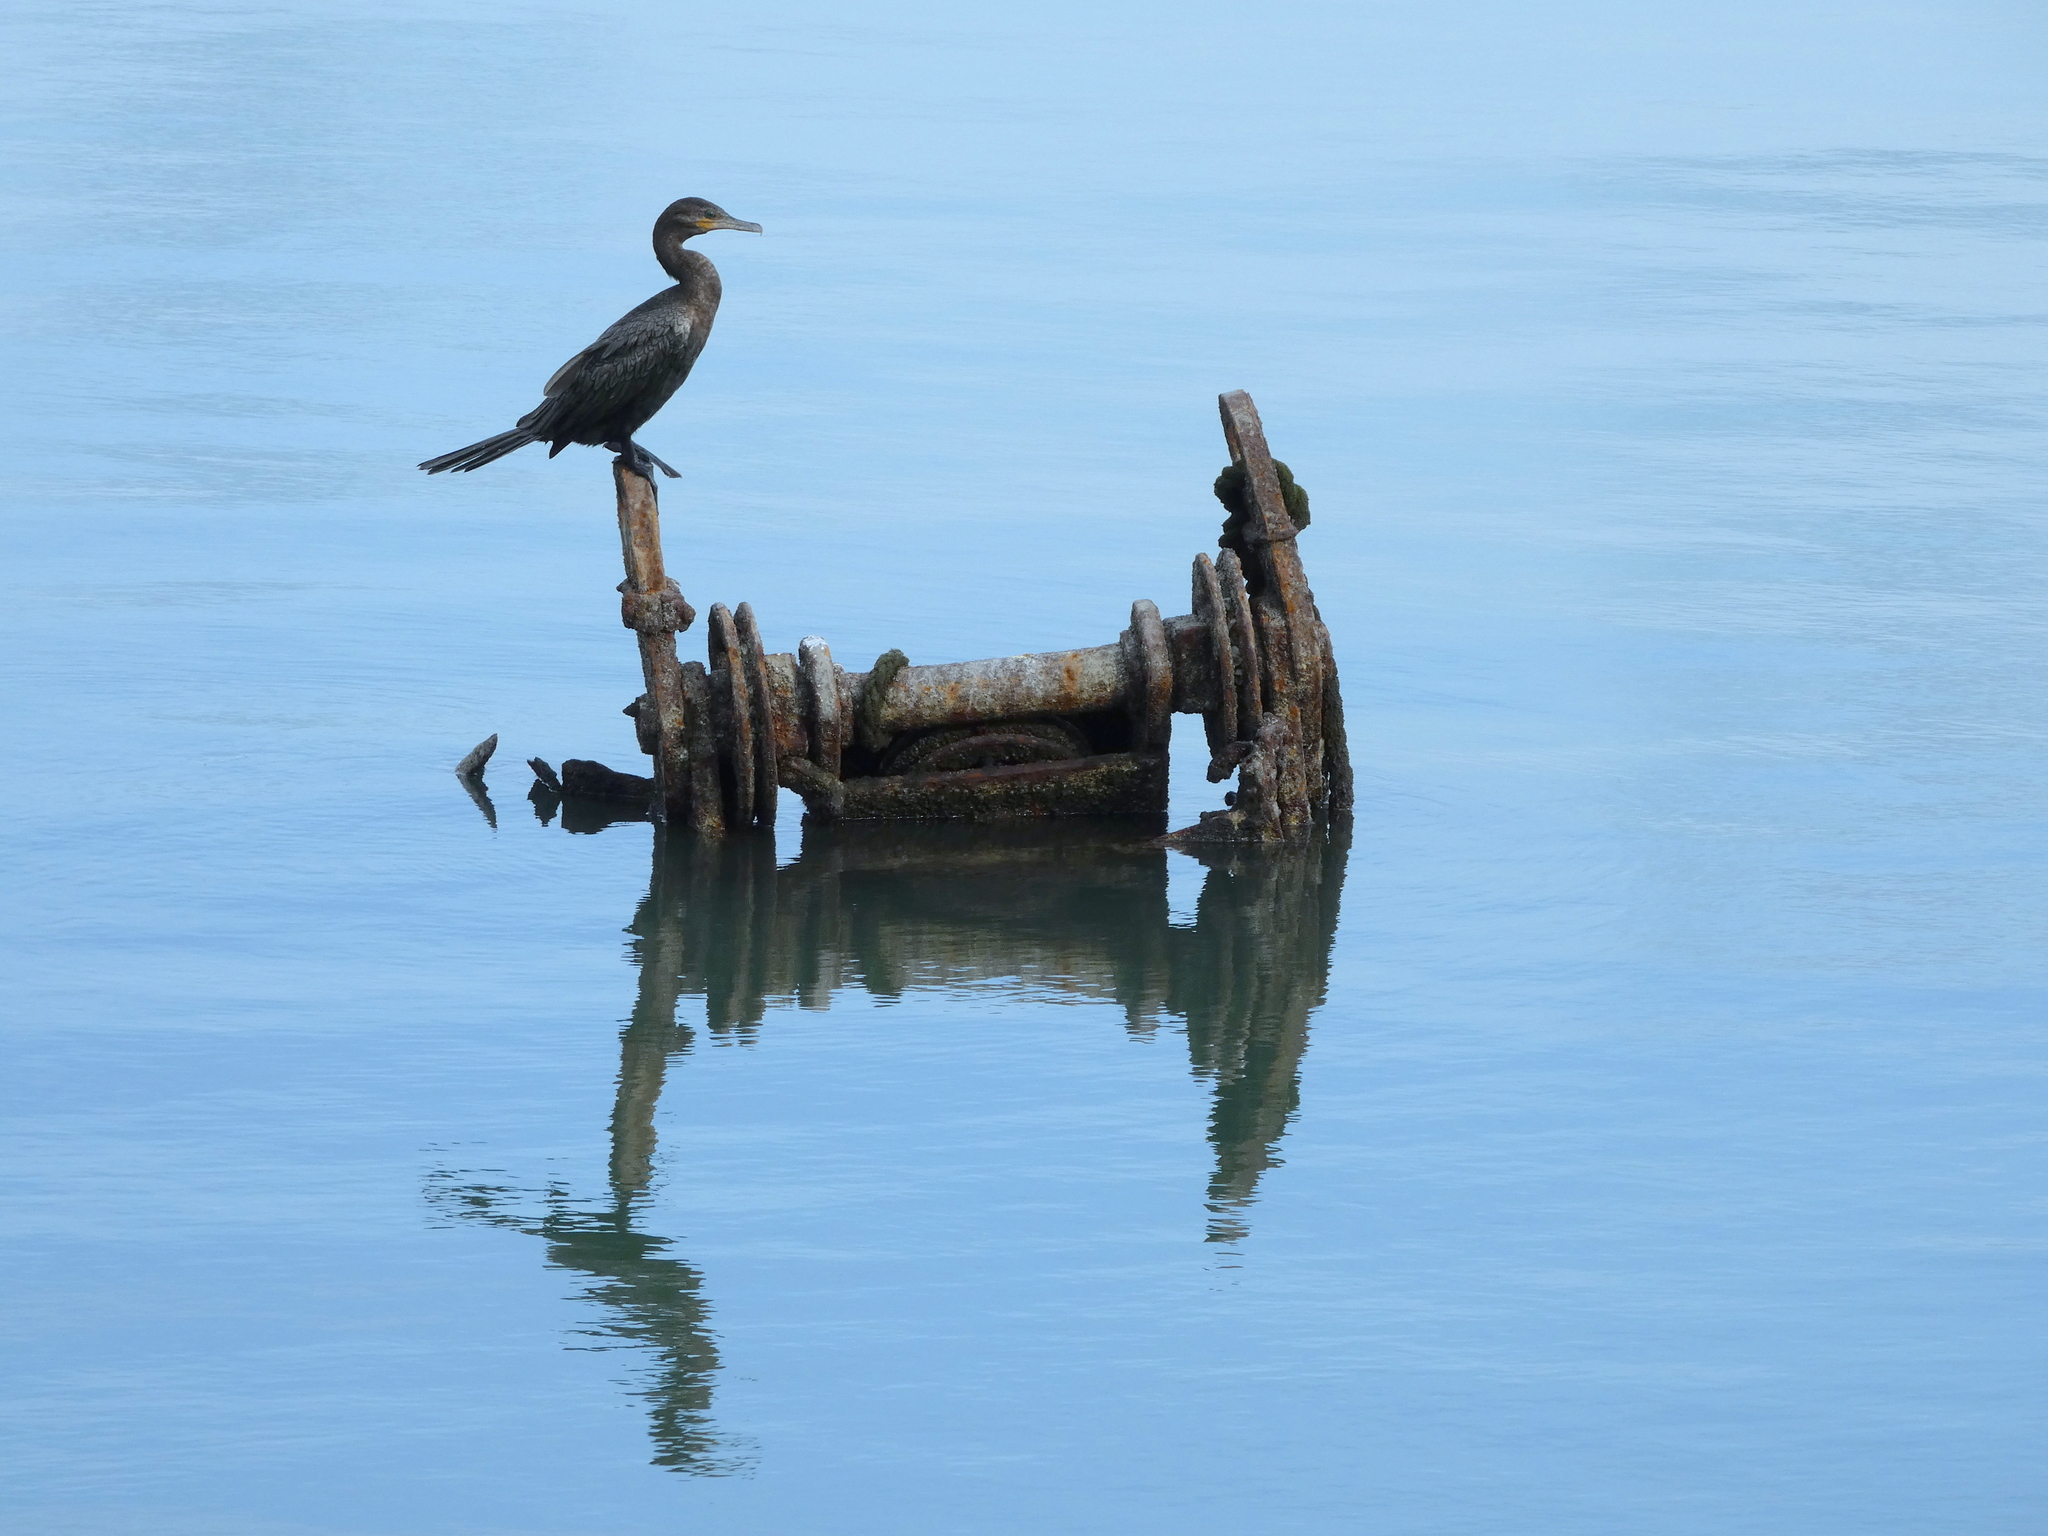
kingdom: Animalia
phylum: Chordata
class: Aves
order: Suliformes
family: Phalacrocoracidae
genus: Phalacrocorax
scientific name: Phalacrocorax brasilianus
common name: Neotropic cormorant
